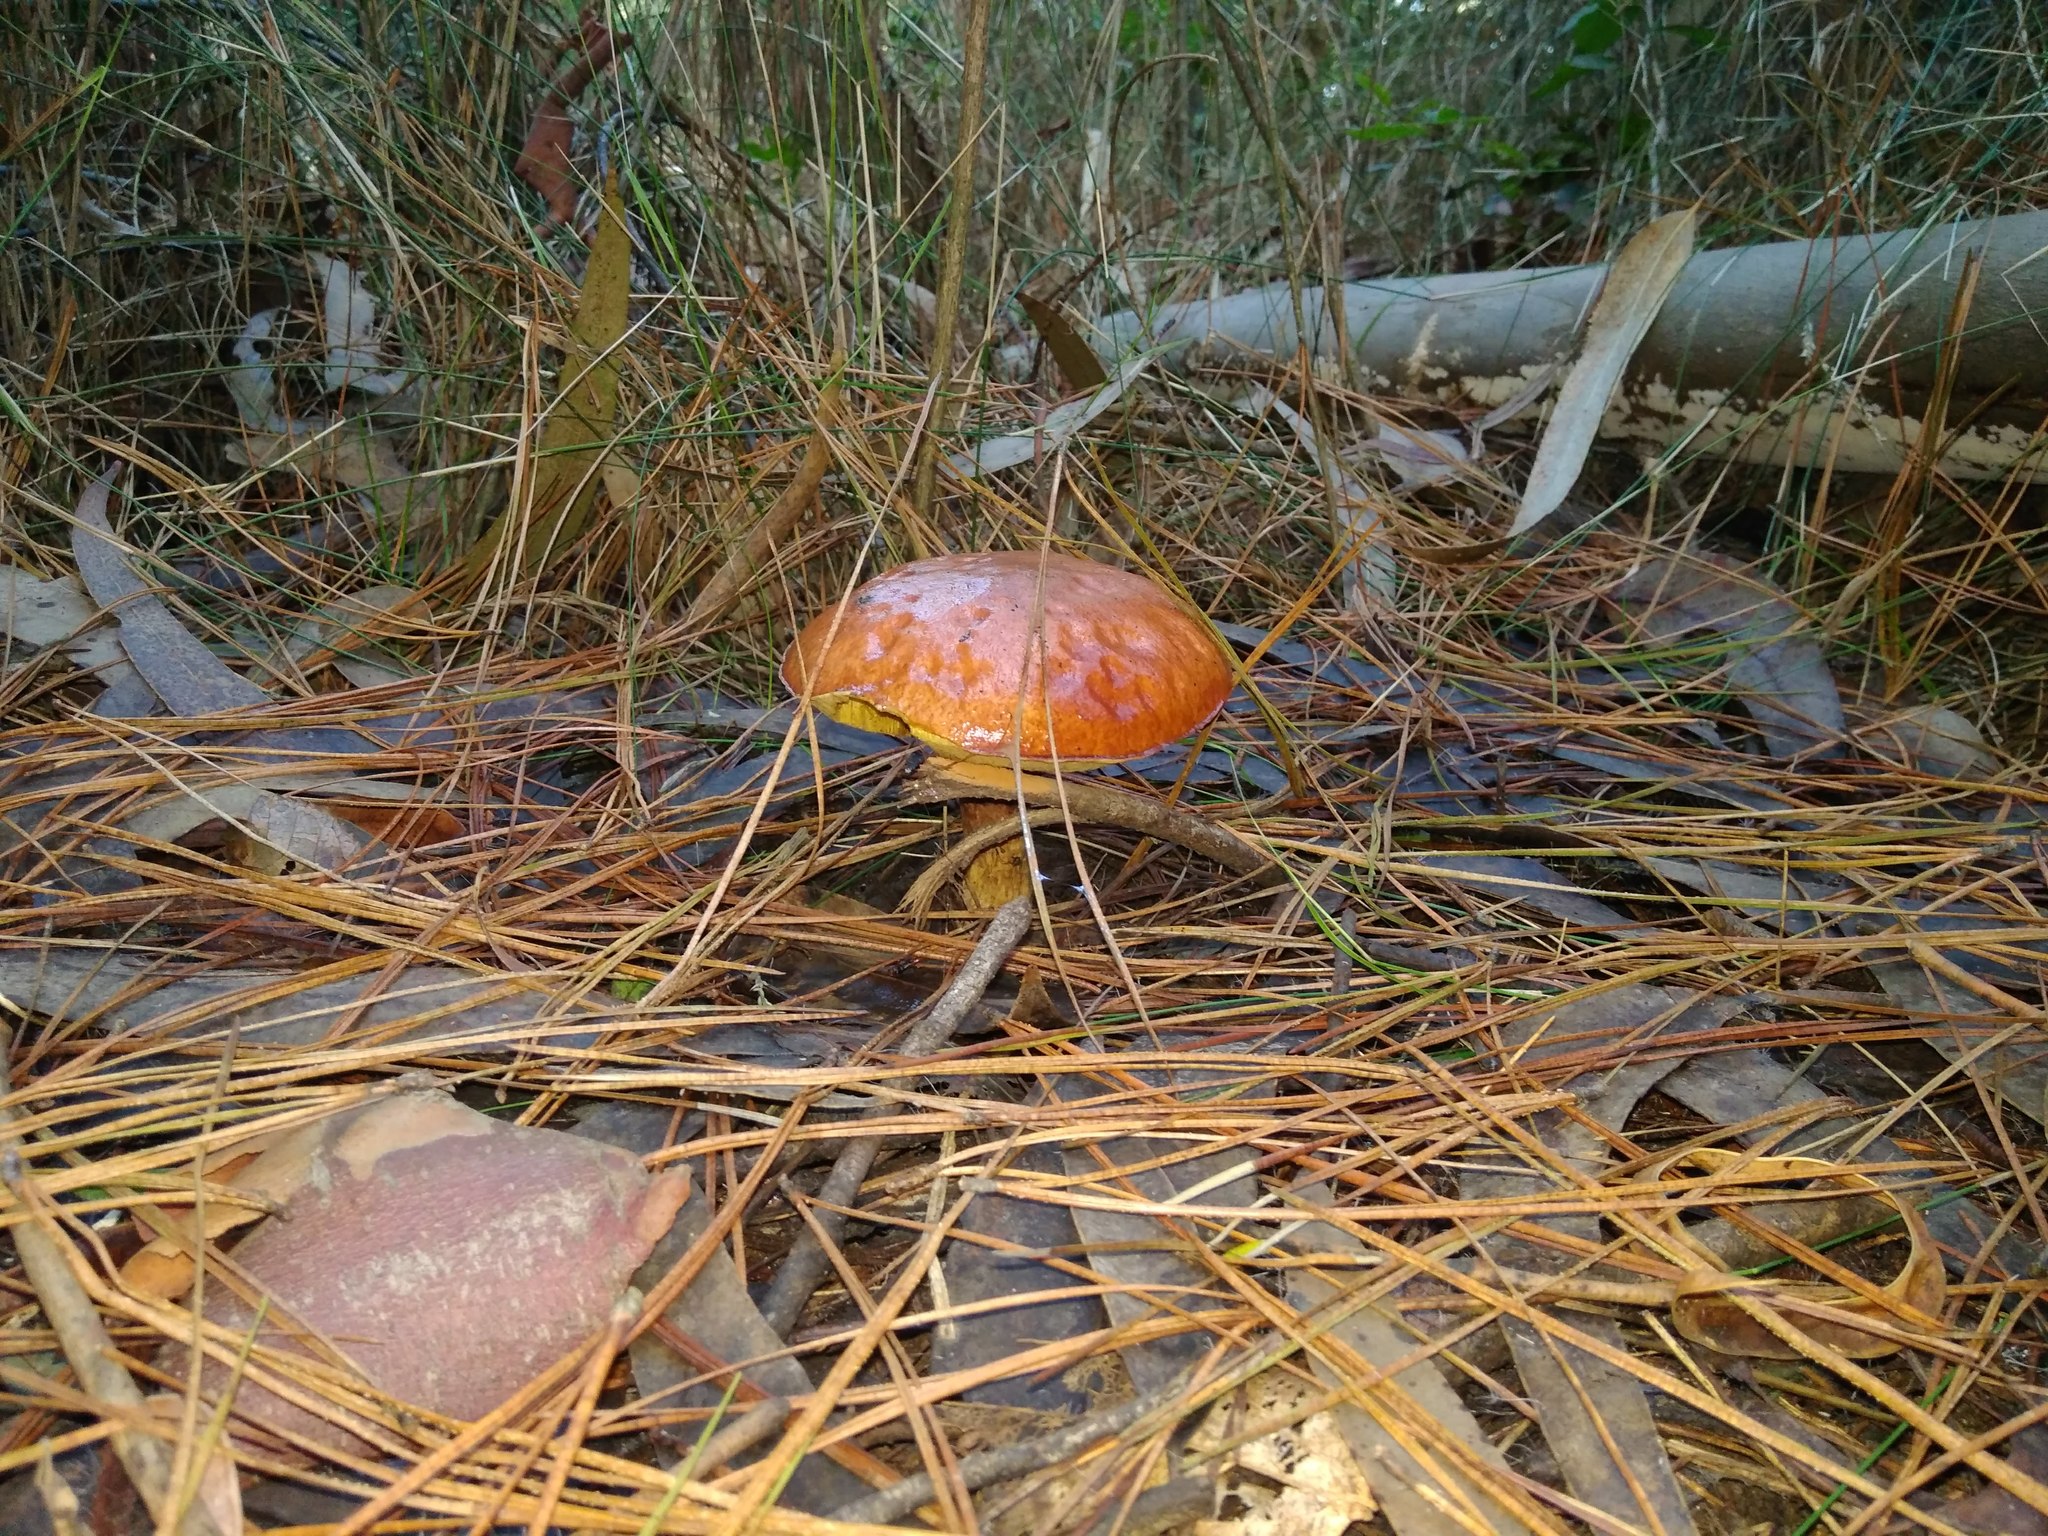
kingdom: Fungi
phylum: Basidiomycota
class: Agaricomycetes
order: Boletales
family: Suillaceae
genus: Suillus
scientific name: Suillus luteus
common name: Slippery jack
